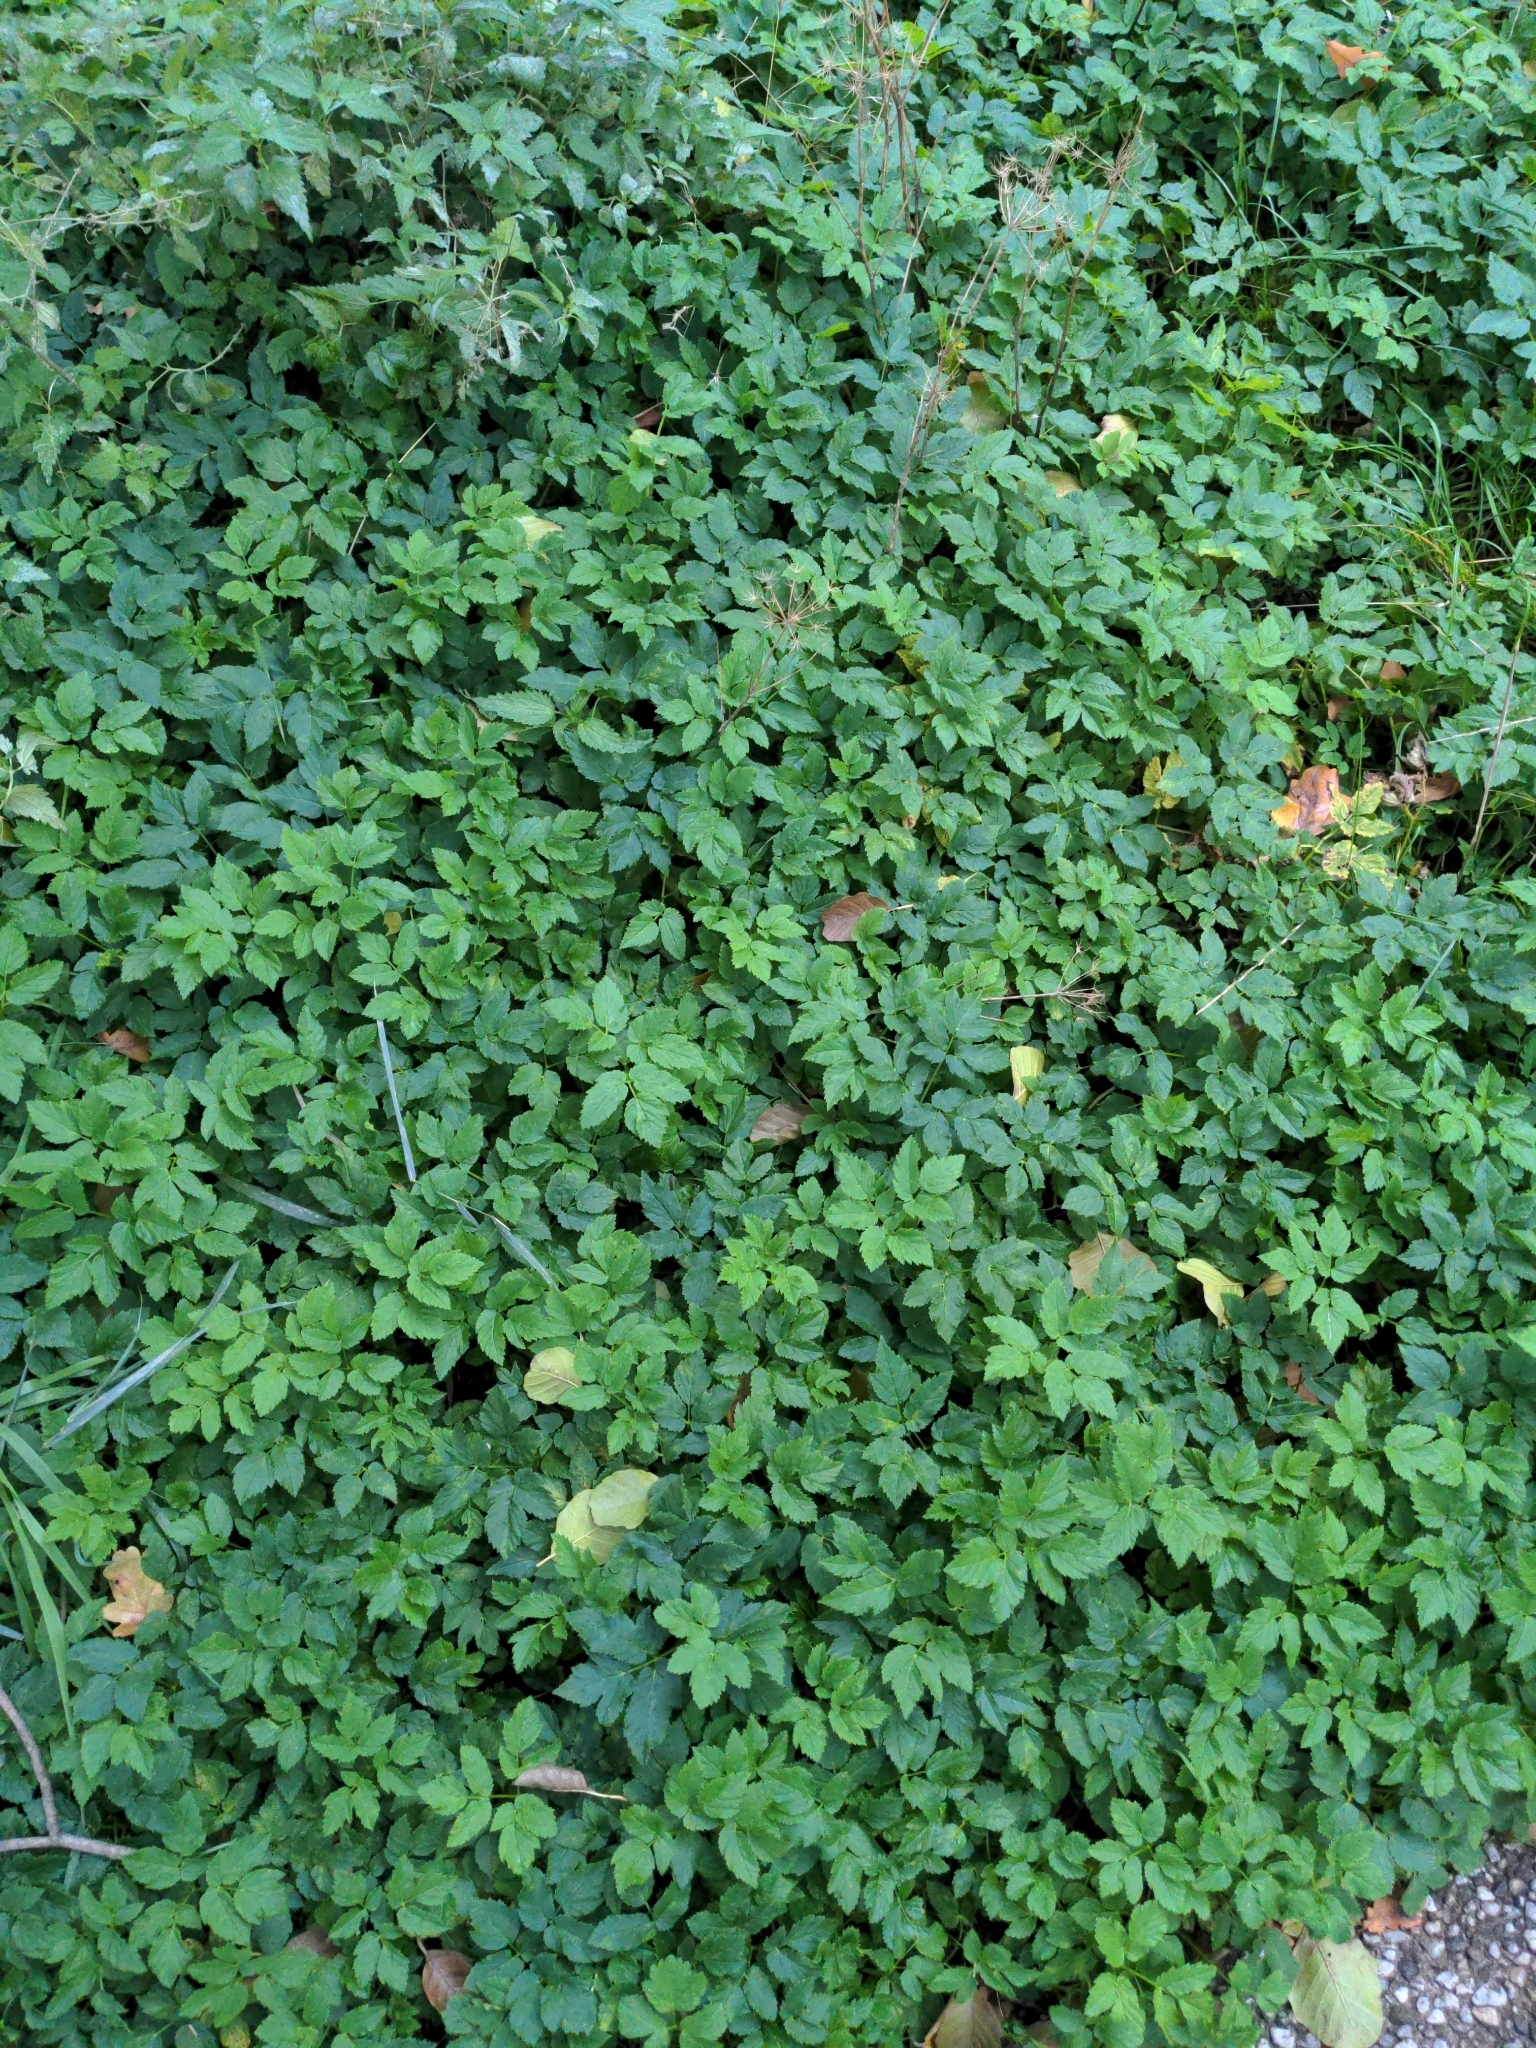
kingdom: Plantae
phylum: Tracheophyta
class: Magnoliopsida
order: Apiales
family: Apiaceae
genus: Aegopodium
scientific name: Aegopodium podagraria
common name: Ground-elder
